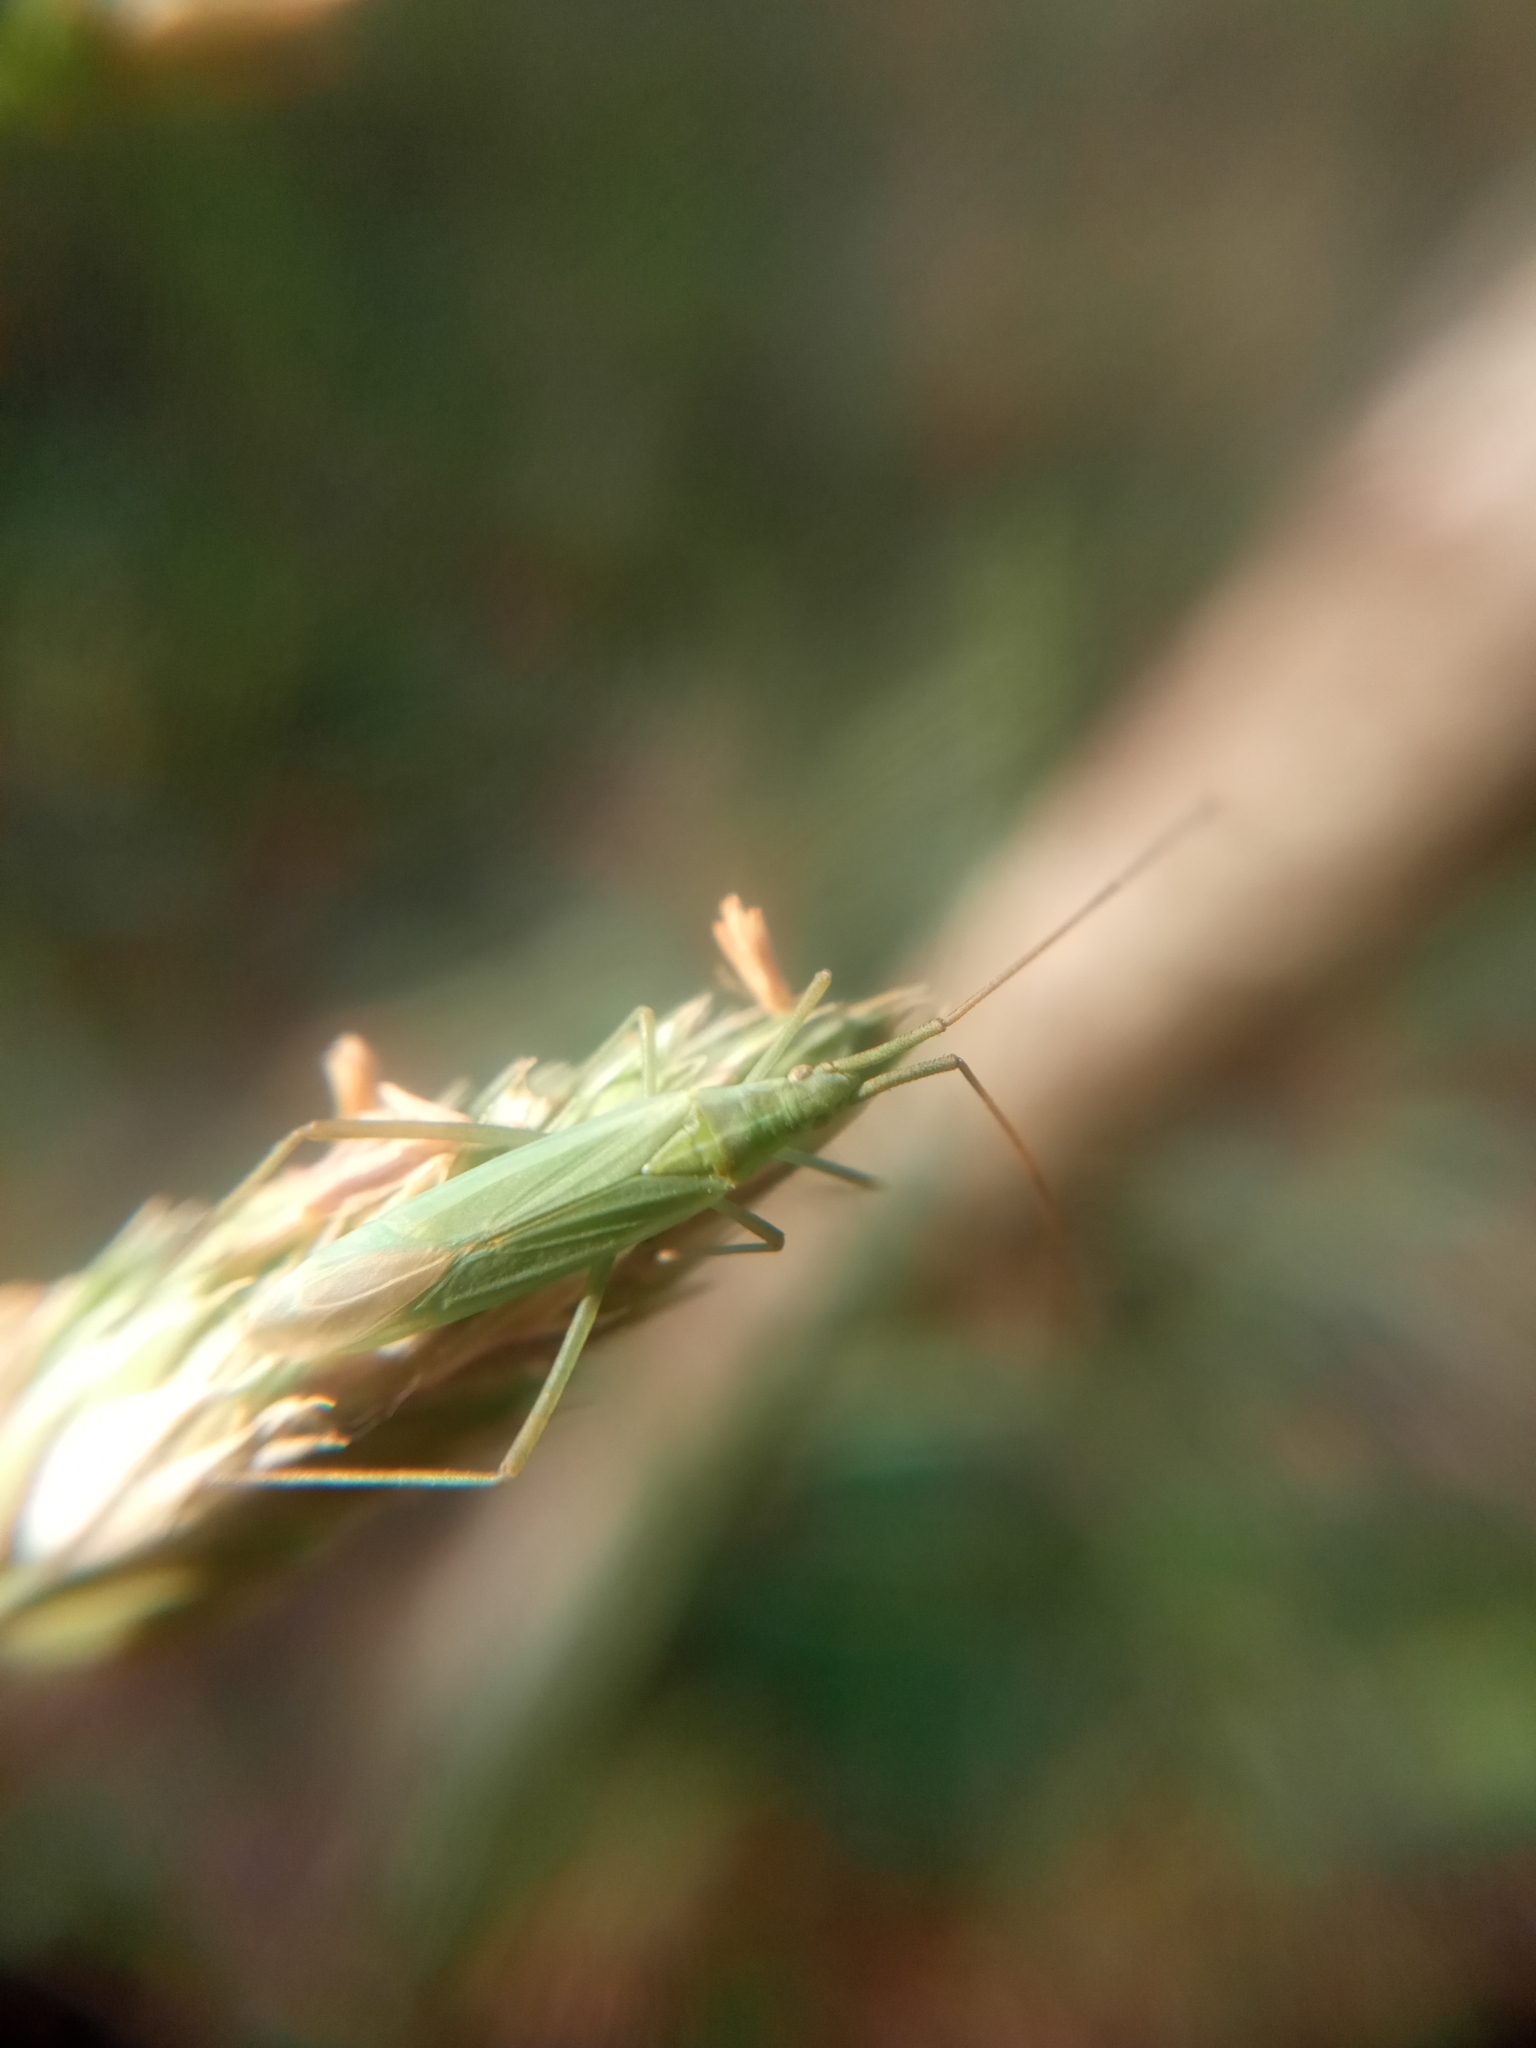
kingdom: Animalia
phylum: Arthropoda
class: Insecta
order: Hemiptera
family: Miridae
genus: Megaloceroea
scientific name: Megaloceroea recticornis
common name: Plant bug
